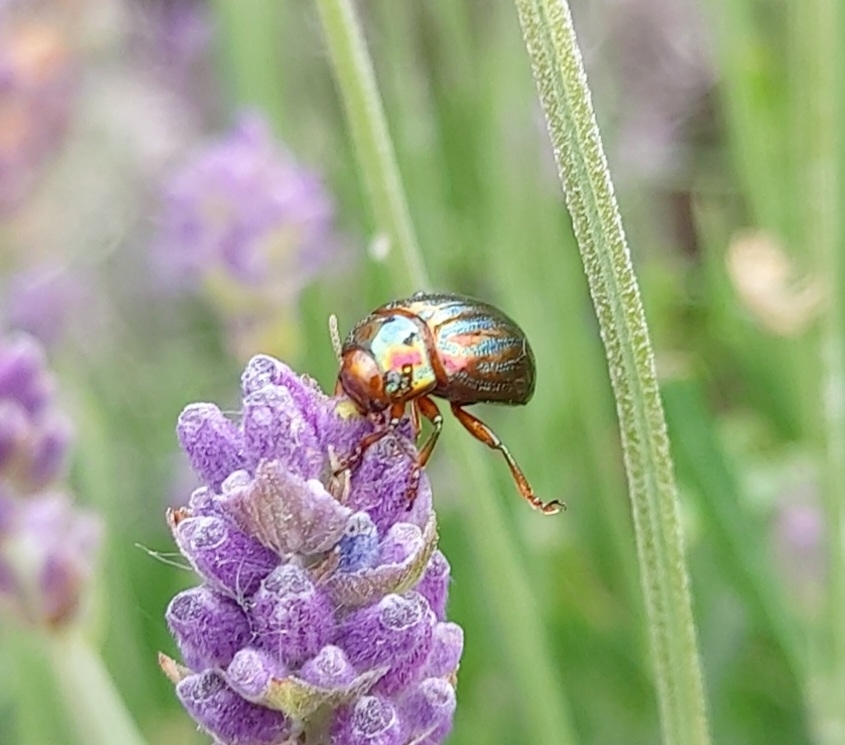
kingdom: Animalia
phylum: Arthropoda
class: Insecta
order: Coleoptera
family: Chrysomelidae
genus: Chrysolina
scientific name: Chrysolina americana
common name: Rosemary beetle
